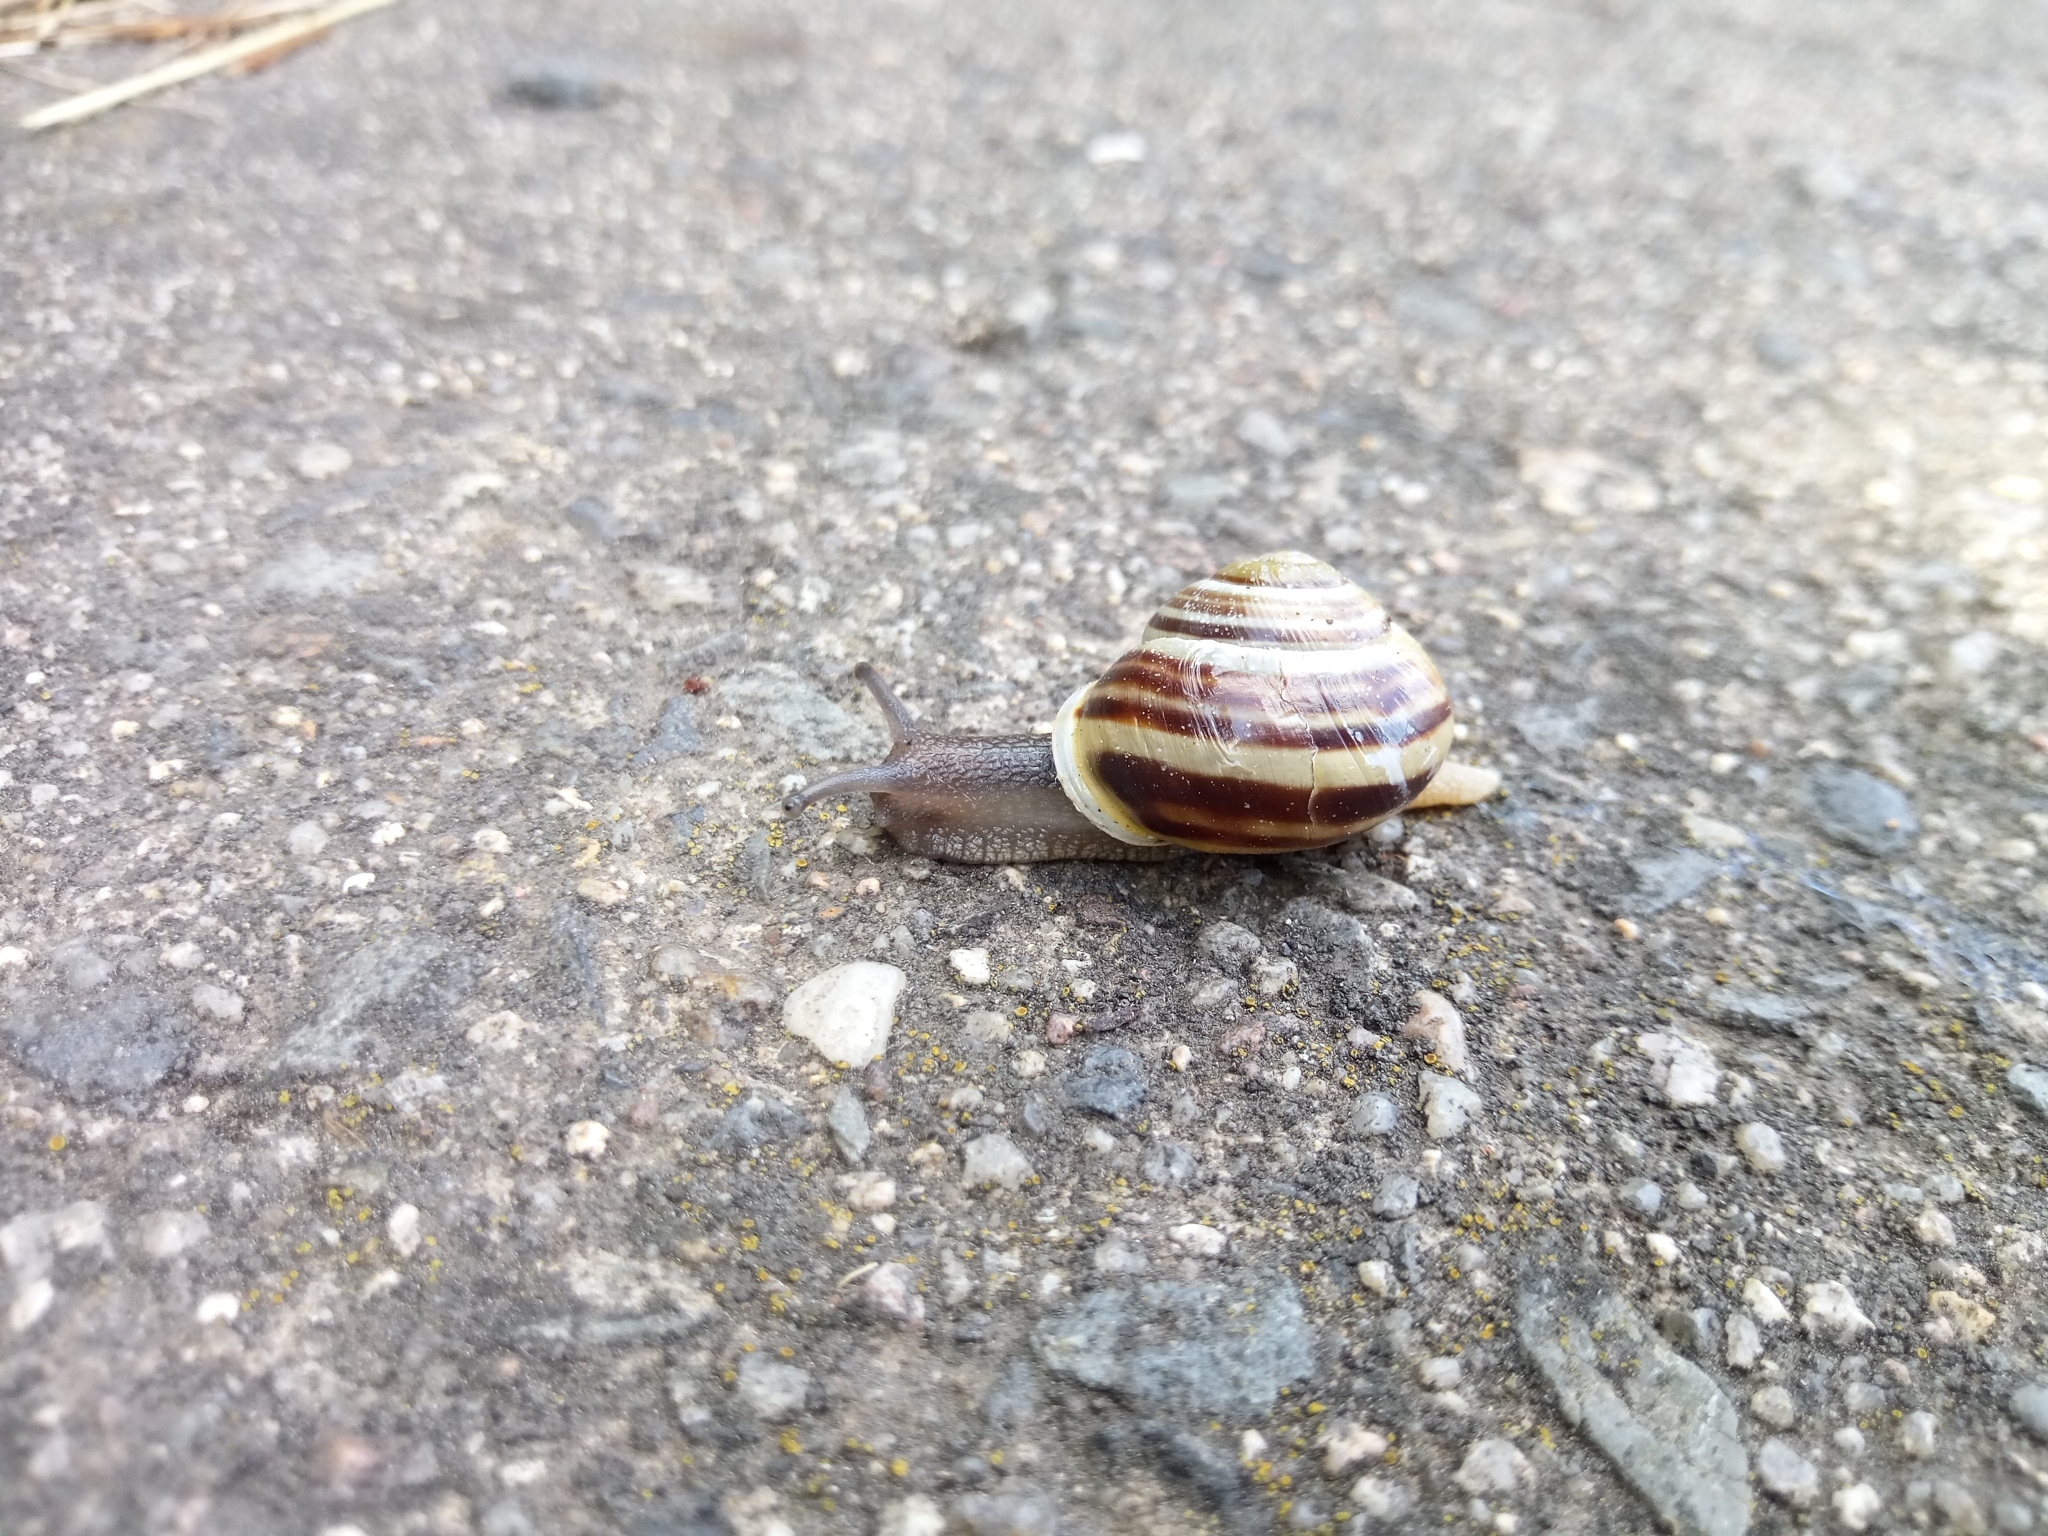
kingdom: Animalia
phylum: Mollusca
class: Gastropoda
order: Stylommatophora
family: Helicidae
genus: Cepaea
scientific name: Cepaea hortensis
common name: White-lip gardensnail
